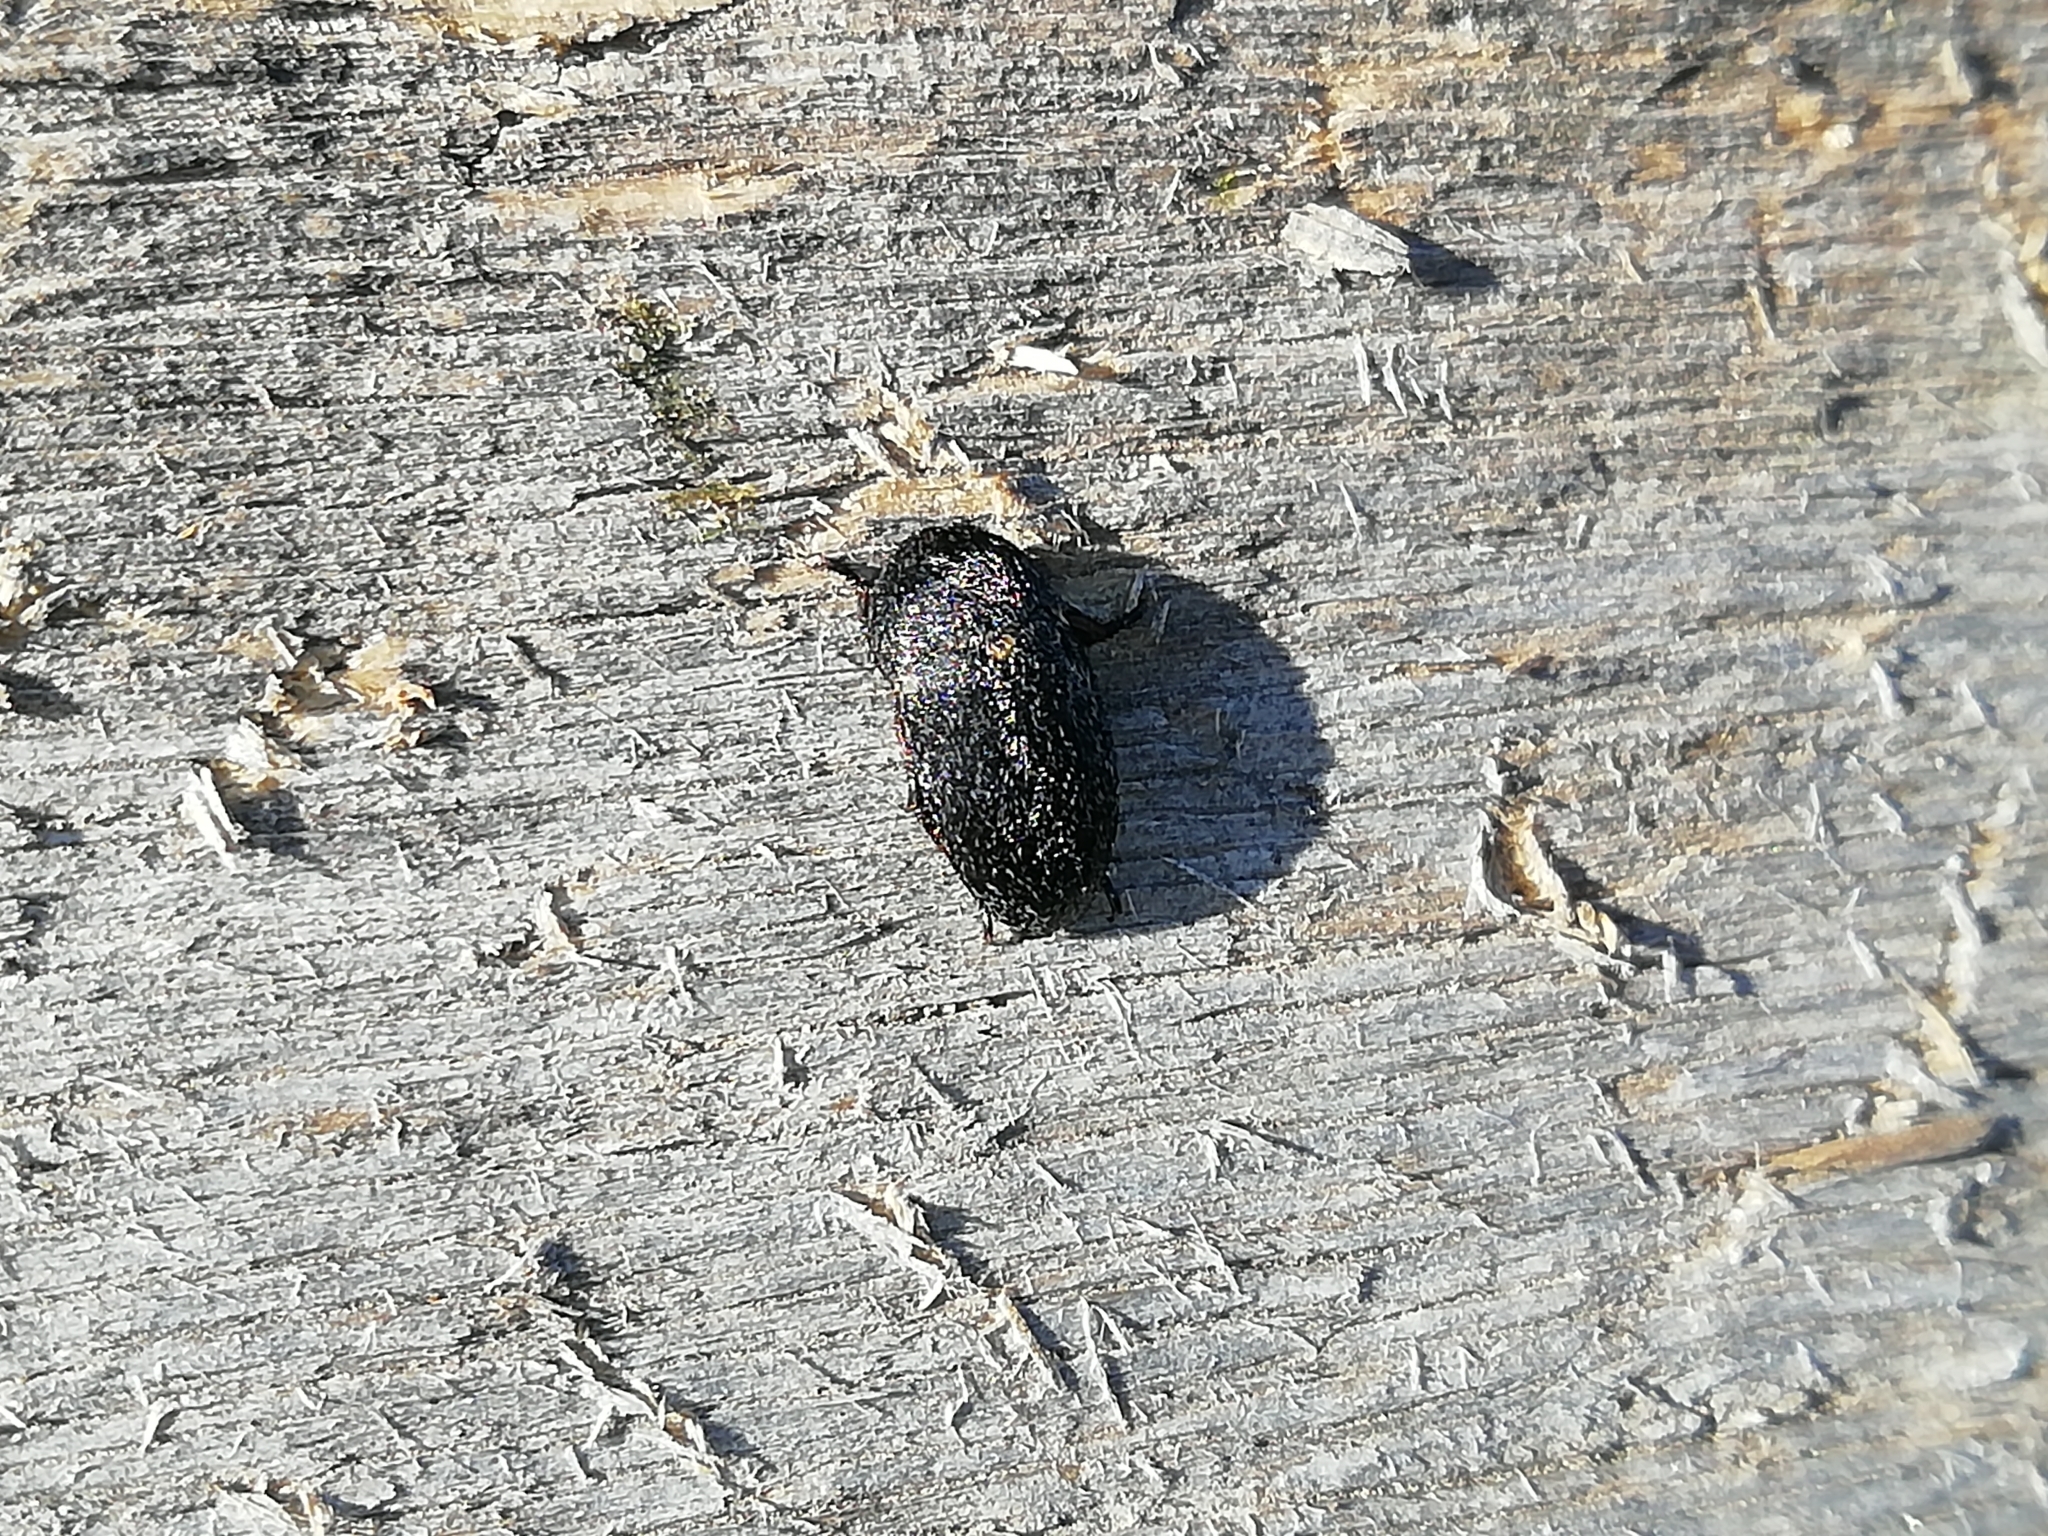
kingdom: Animalia
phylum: Arthropoda
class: Insecta
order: Coleoptera
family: Dermestidae
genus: Dermestes
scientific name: Dermestes laniarius
